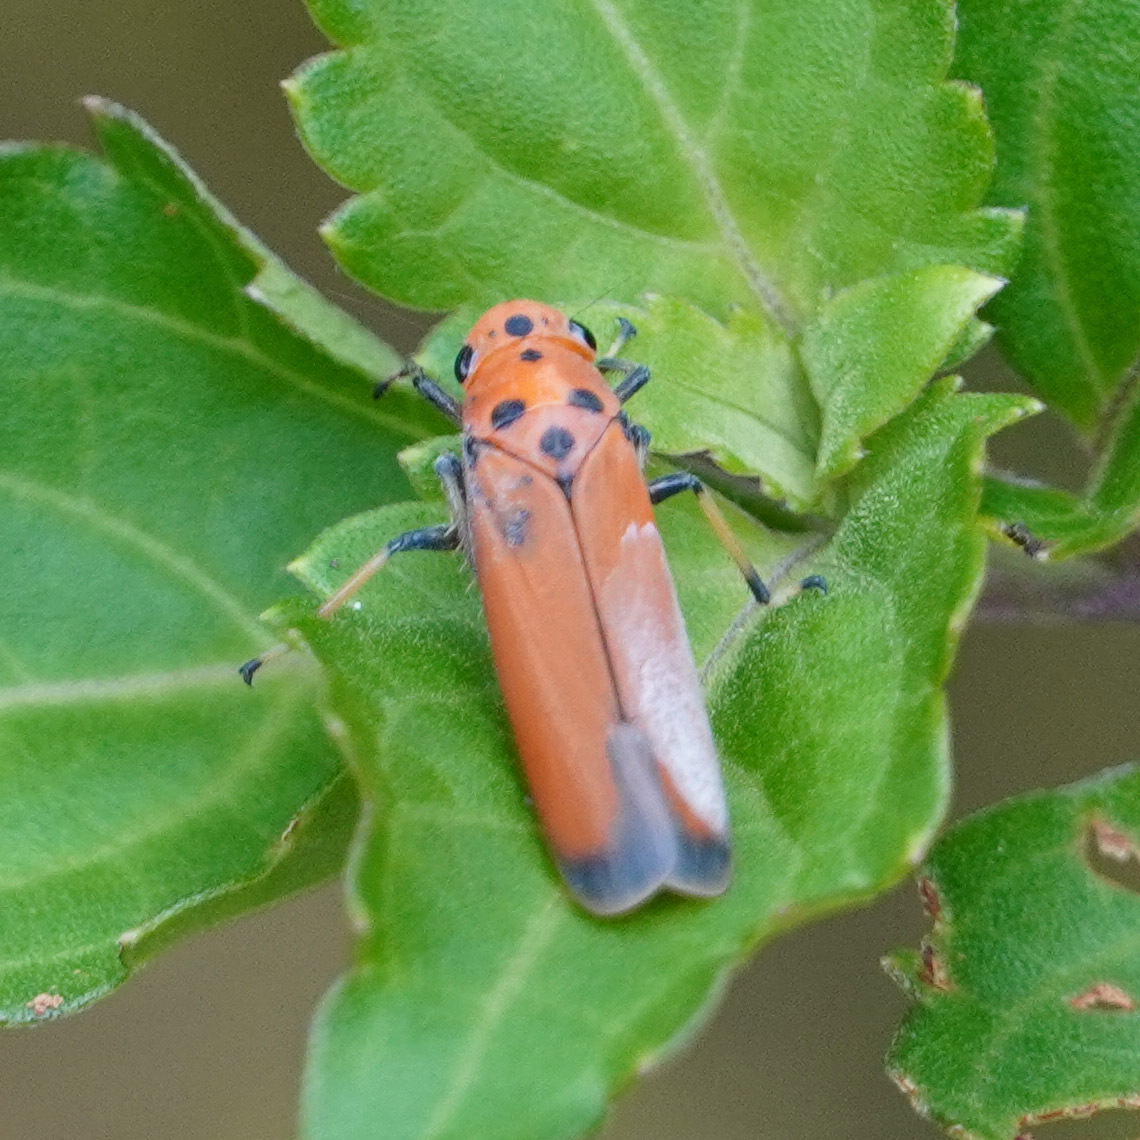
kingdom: Animalia
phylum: Arthropoda
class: Insecta
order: Hemiptera
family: Cicadellidae
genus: Bothrogonia
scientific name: Bothrogonia addita
